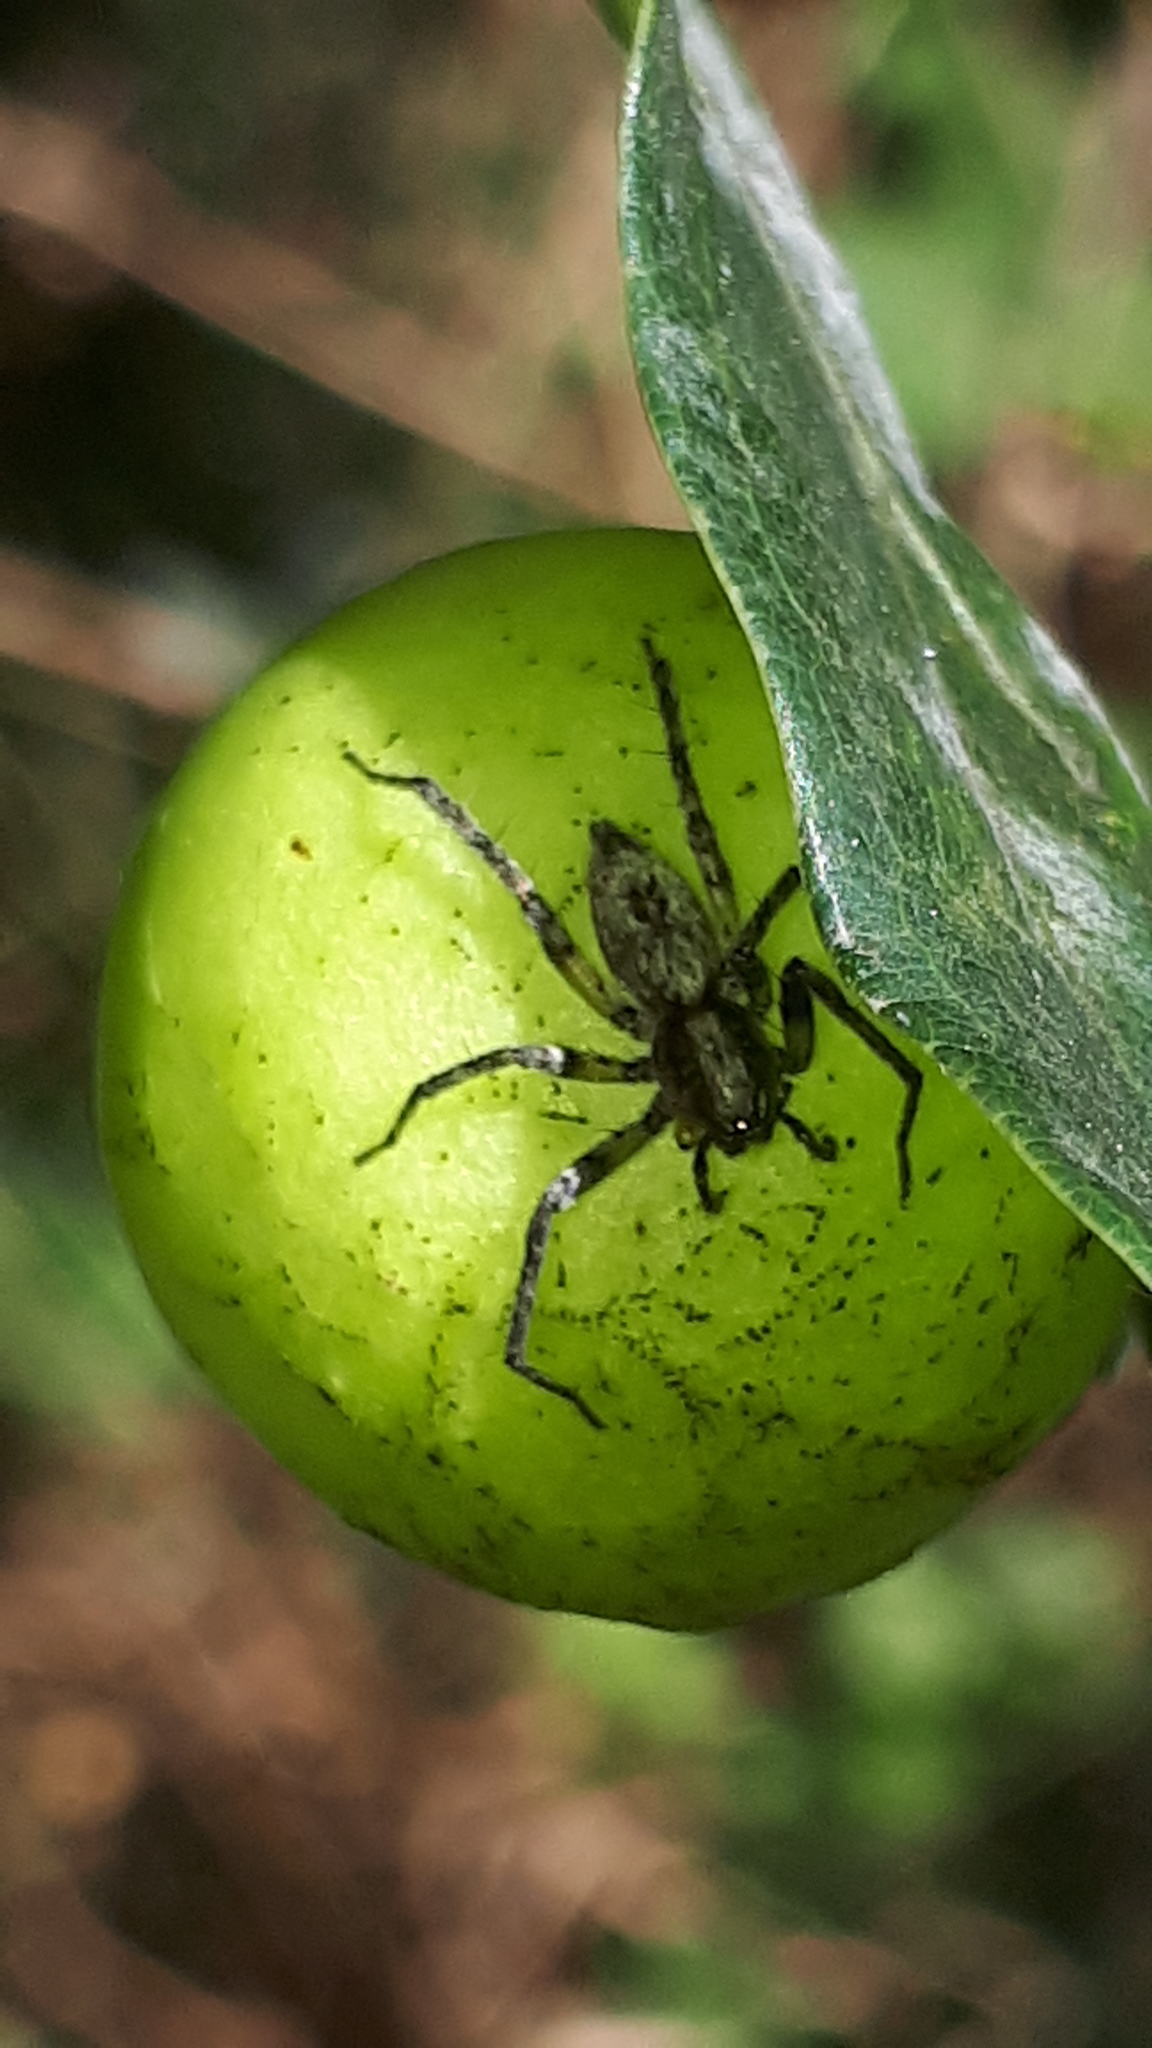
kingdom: Animalia
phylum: Arthropoda
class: Arachnida
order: Araneae
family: Anyphaenidae
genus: Anyphaena
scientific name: Anyphaena accentuata
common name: Buzzing spider
